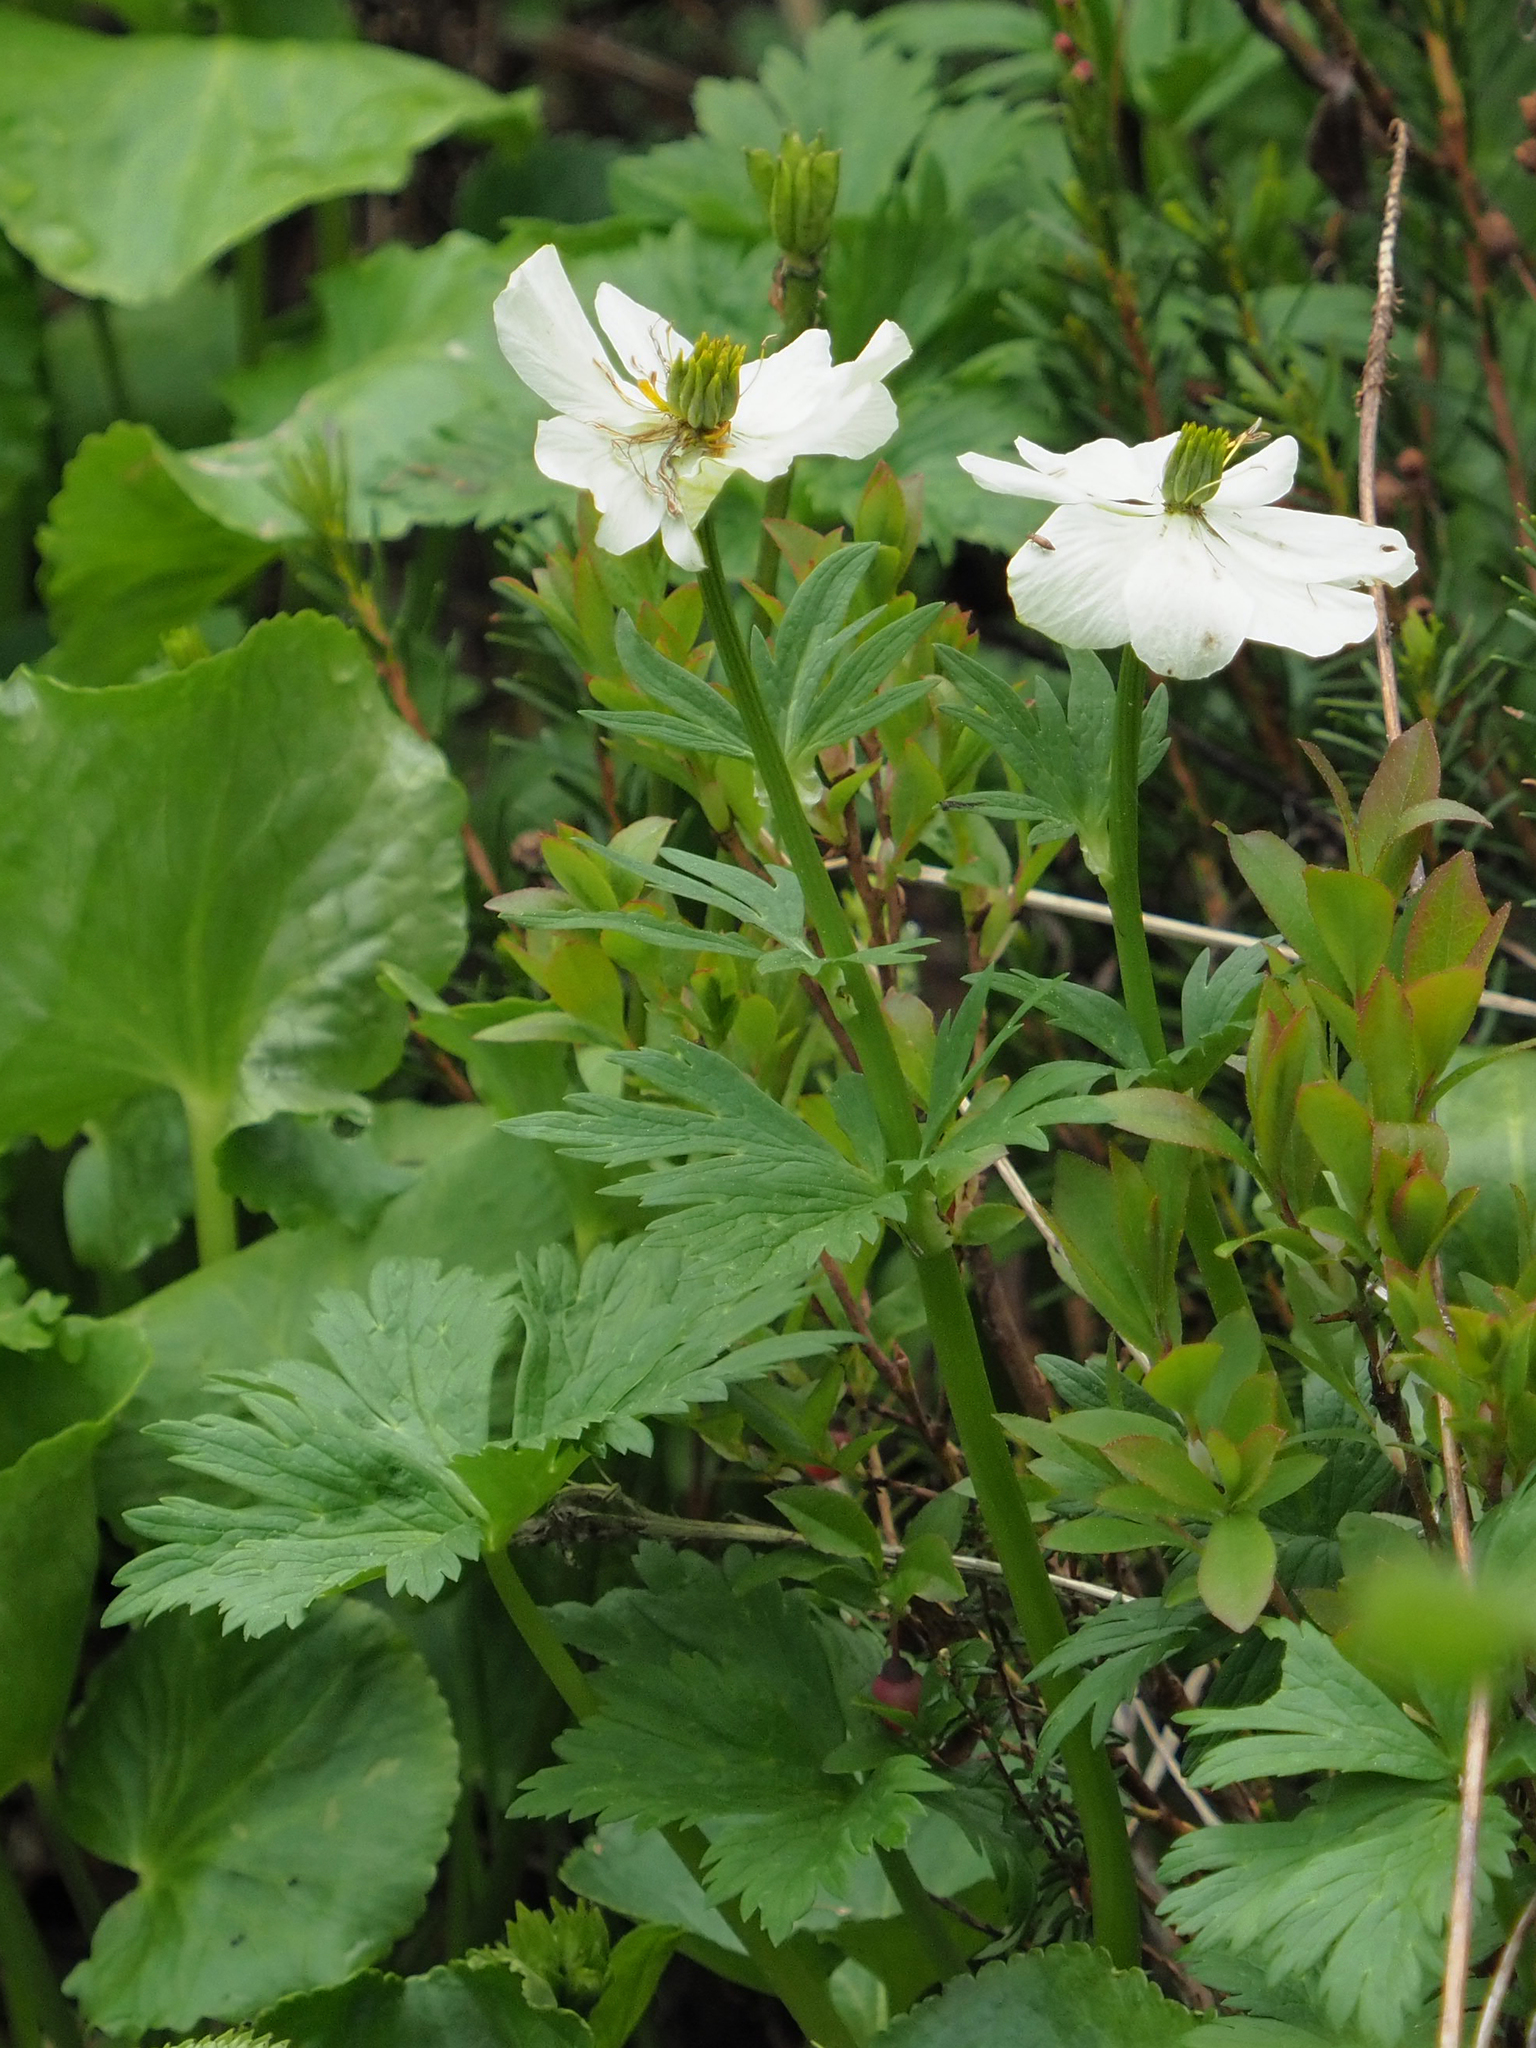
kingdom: Plantae
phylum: Tracheophyta
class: Magnoliopsida
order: Ranunculales
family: Ranunculaceae
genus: Trollius
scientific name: Trollius laxus
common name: American globeflower
